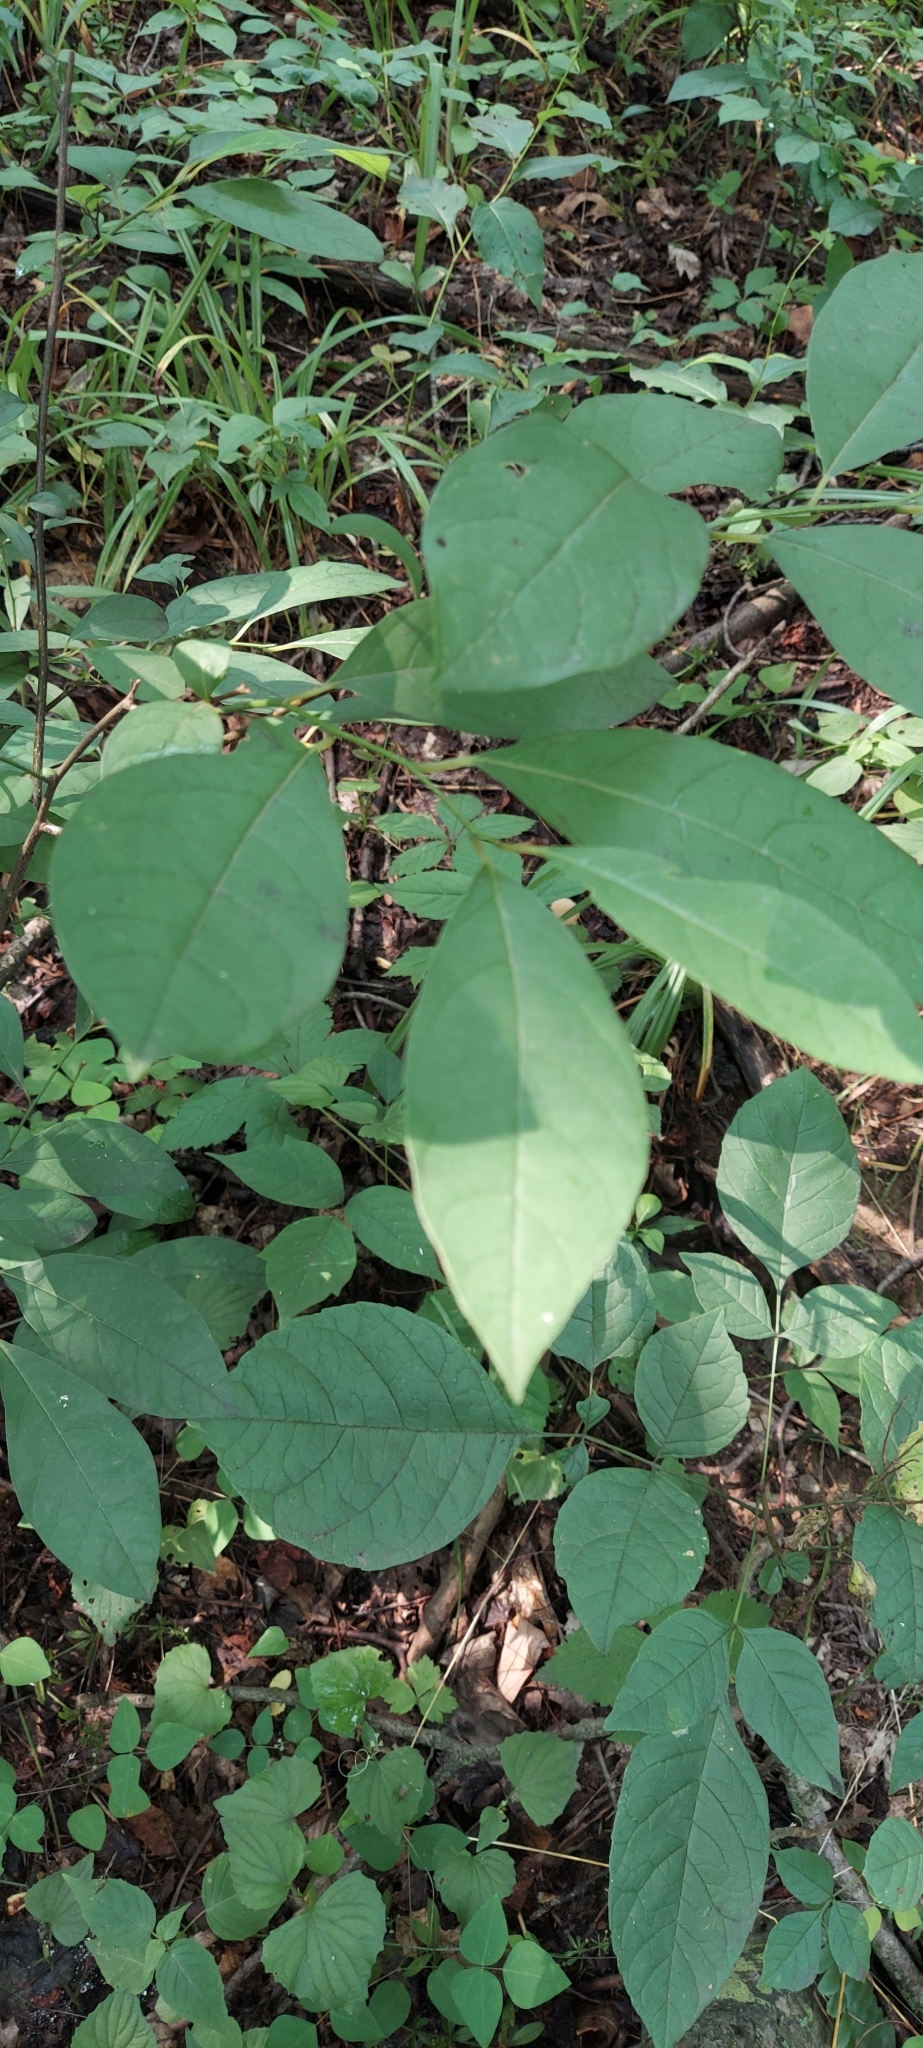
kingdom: Plantae
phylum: Tracheophyta
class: Magnoliopsida
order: Laurales
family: Lauraceae
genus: Lindera
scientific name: Lindera benzoin
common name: Spicebush
